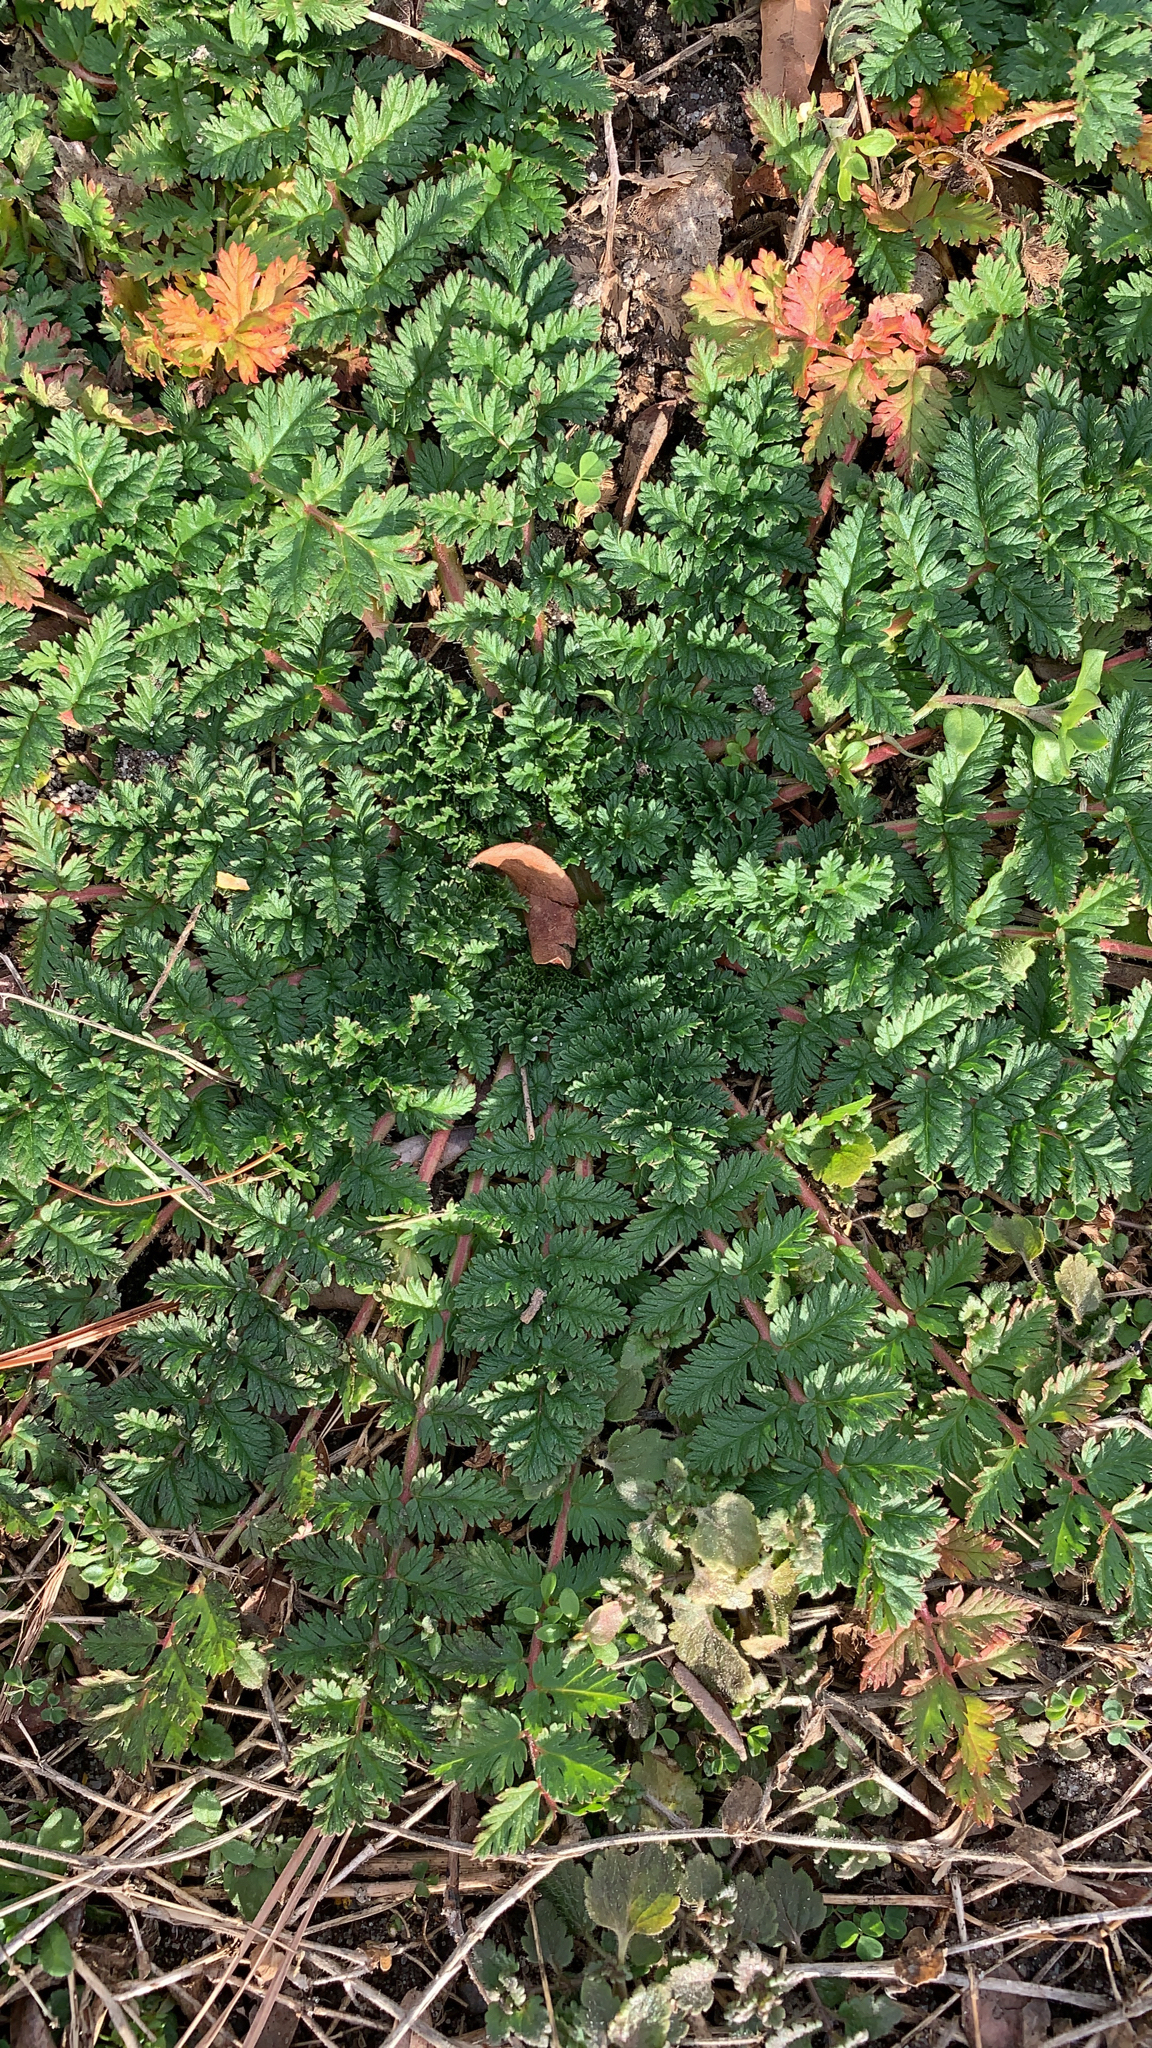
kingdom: Plantae
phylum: Tracheophyta
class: Magnoliopsida
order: Geraniales
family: Geraniaceae
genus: Erodium
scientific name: Erodium cicutarium
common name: Common stork's-bill
